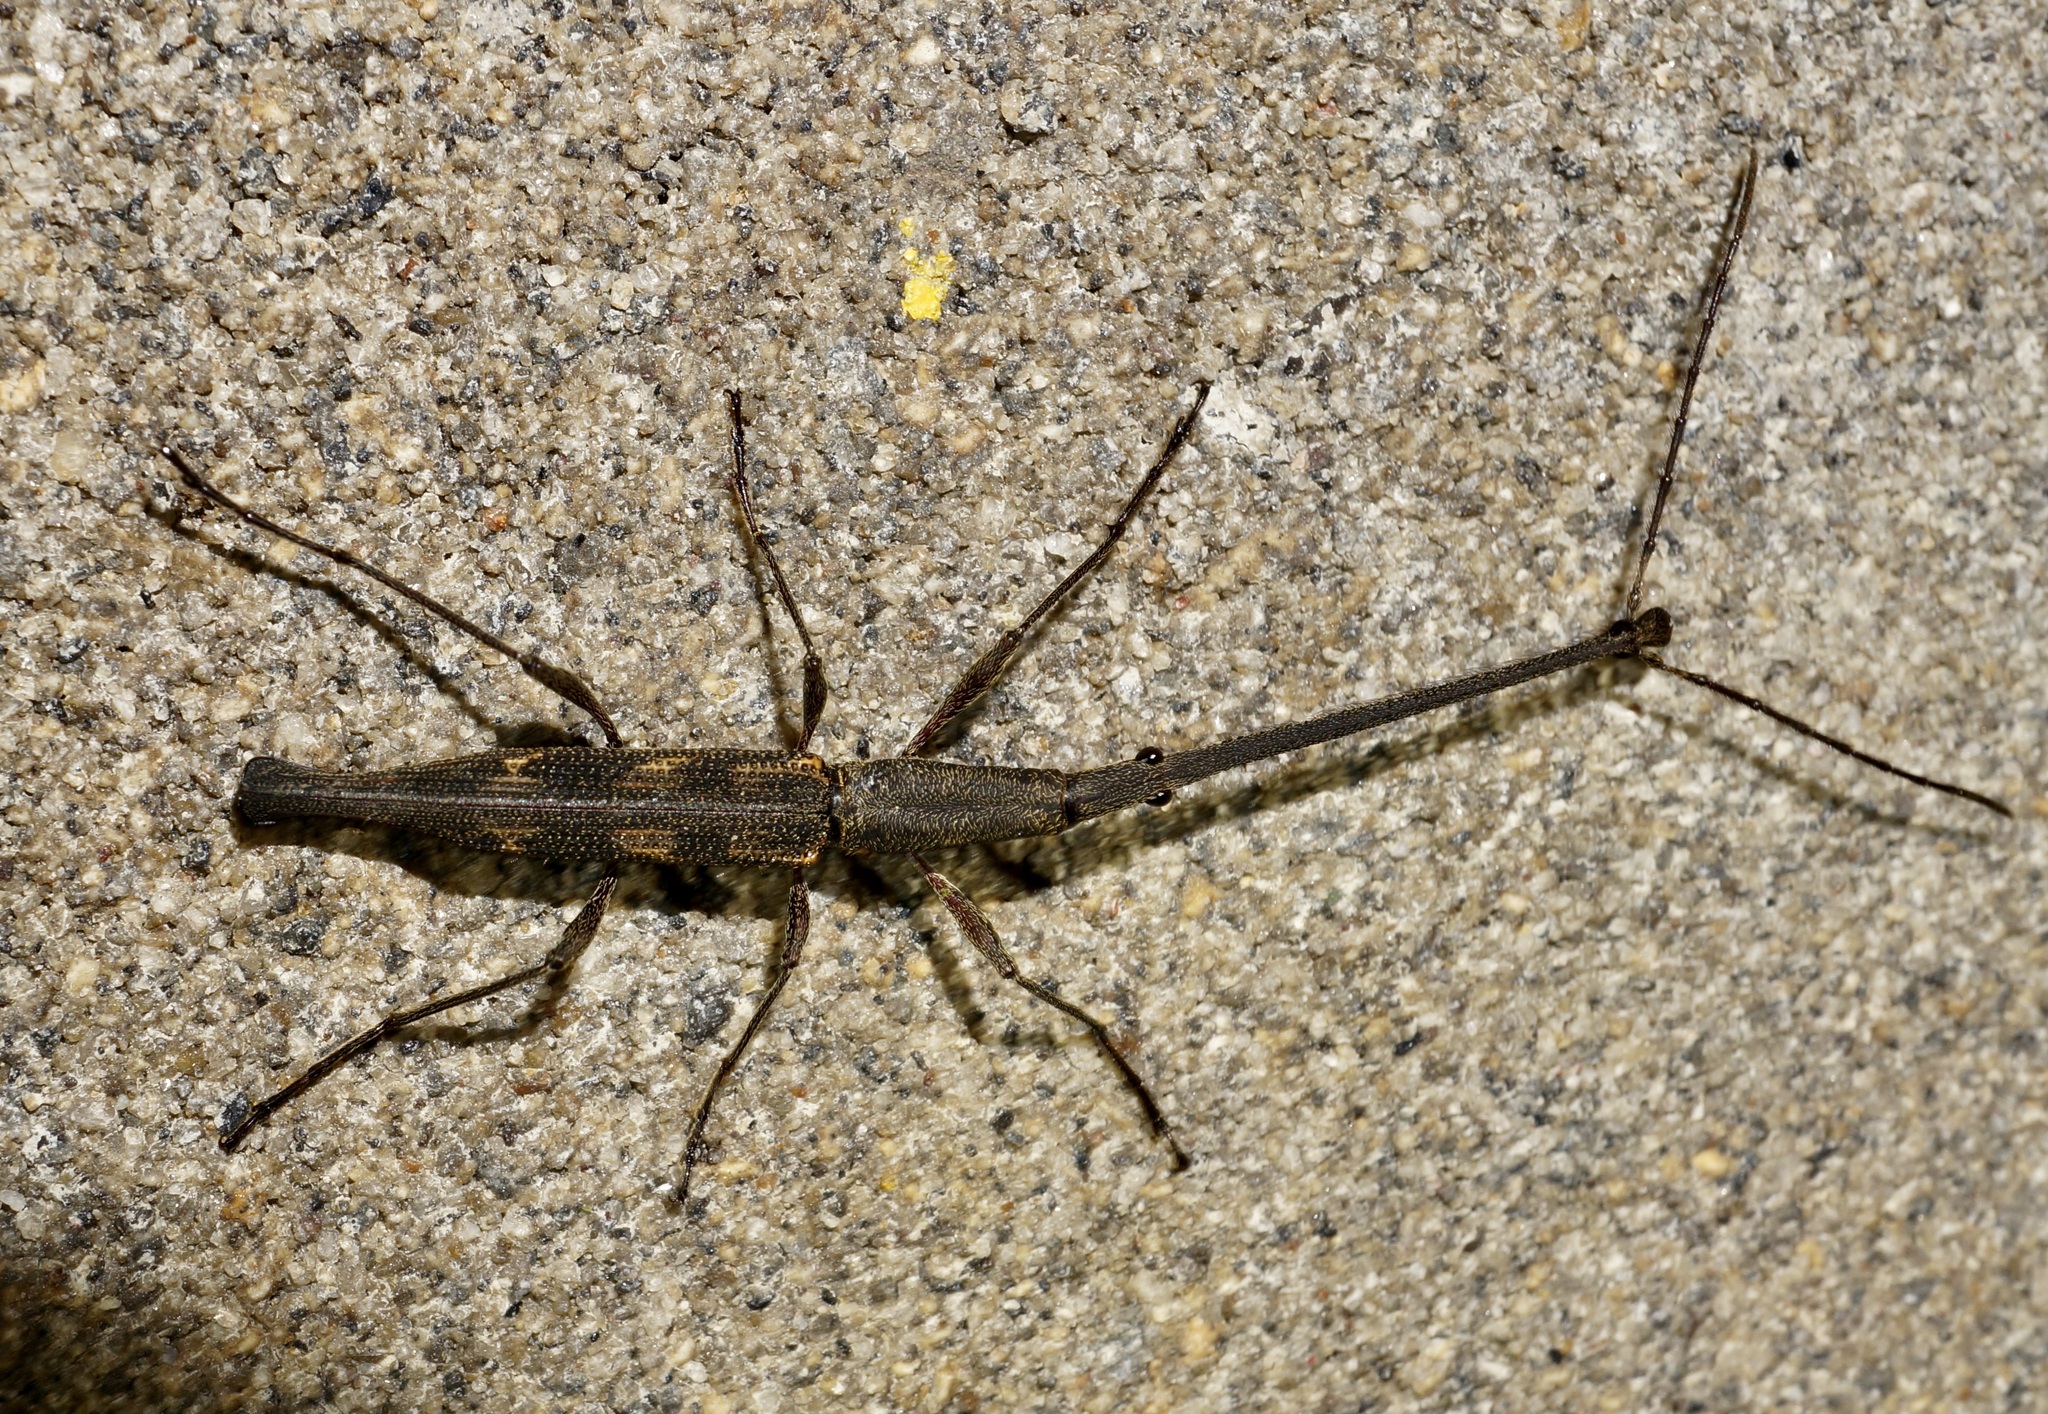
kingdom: Animalia
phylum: Arthropoda
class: Insecta
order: Coleoptera
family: Brentidae
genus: Lasiorhynchus
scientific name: Lasiorhynchus barbicornis
